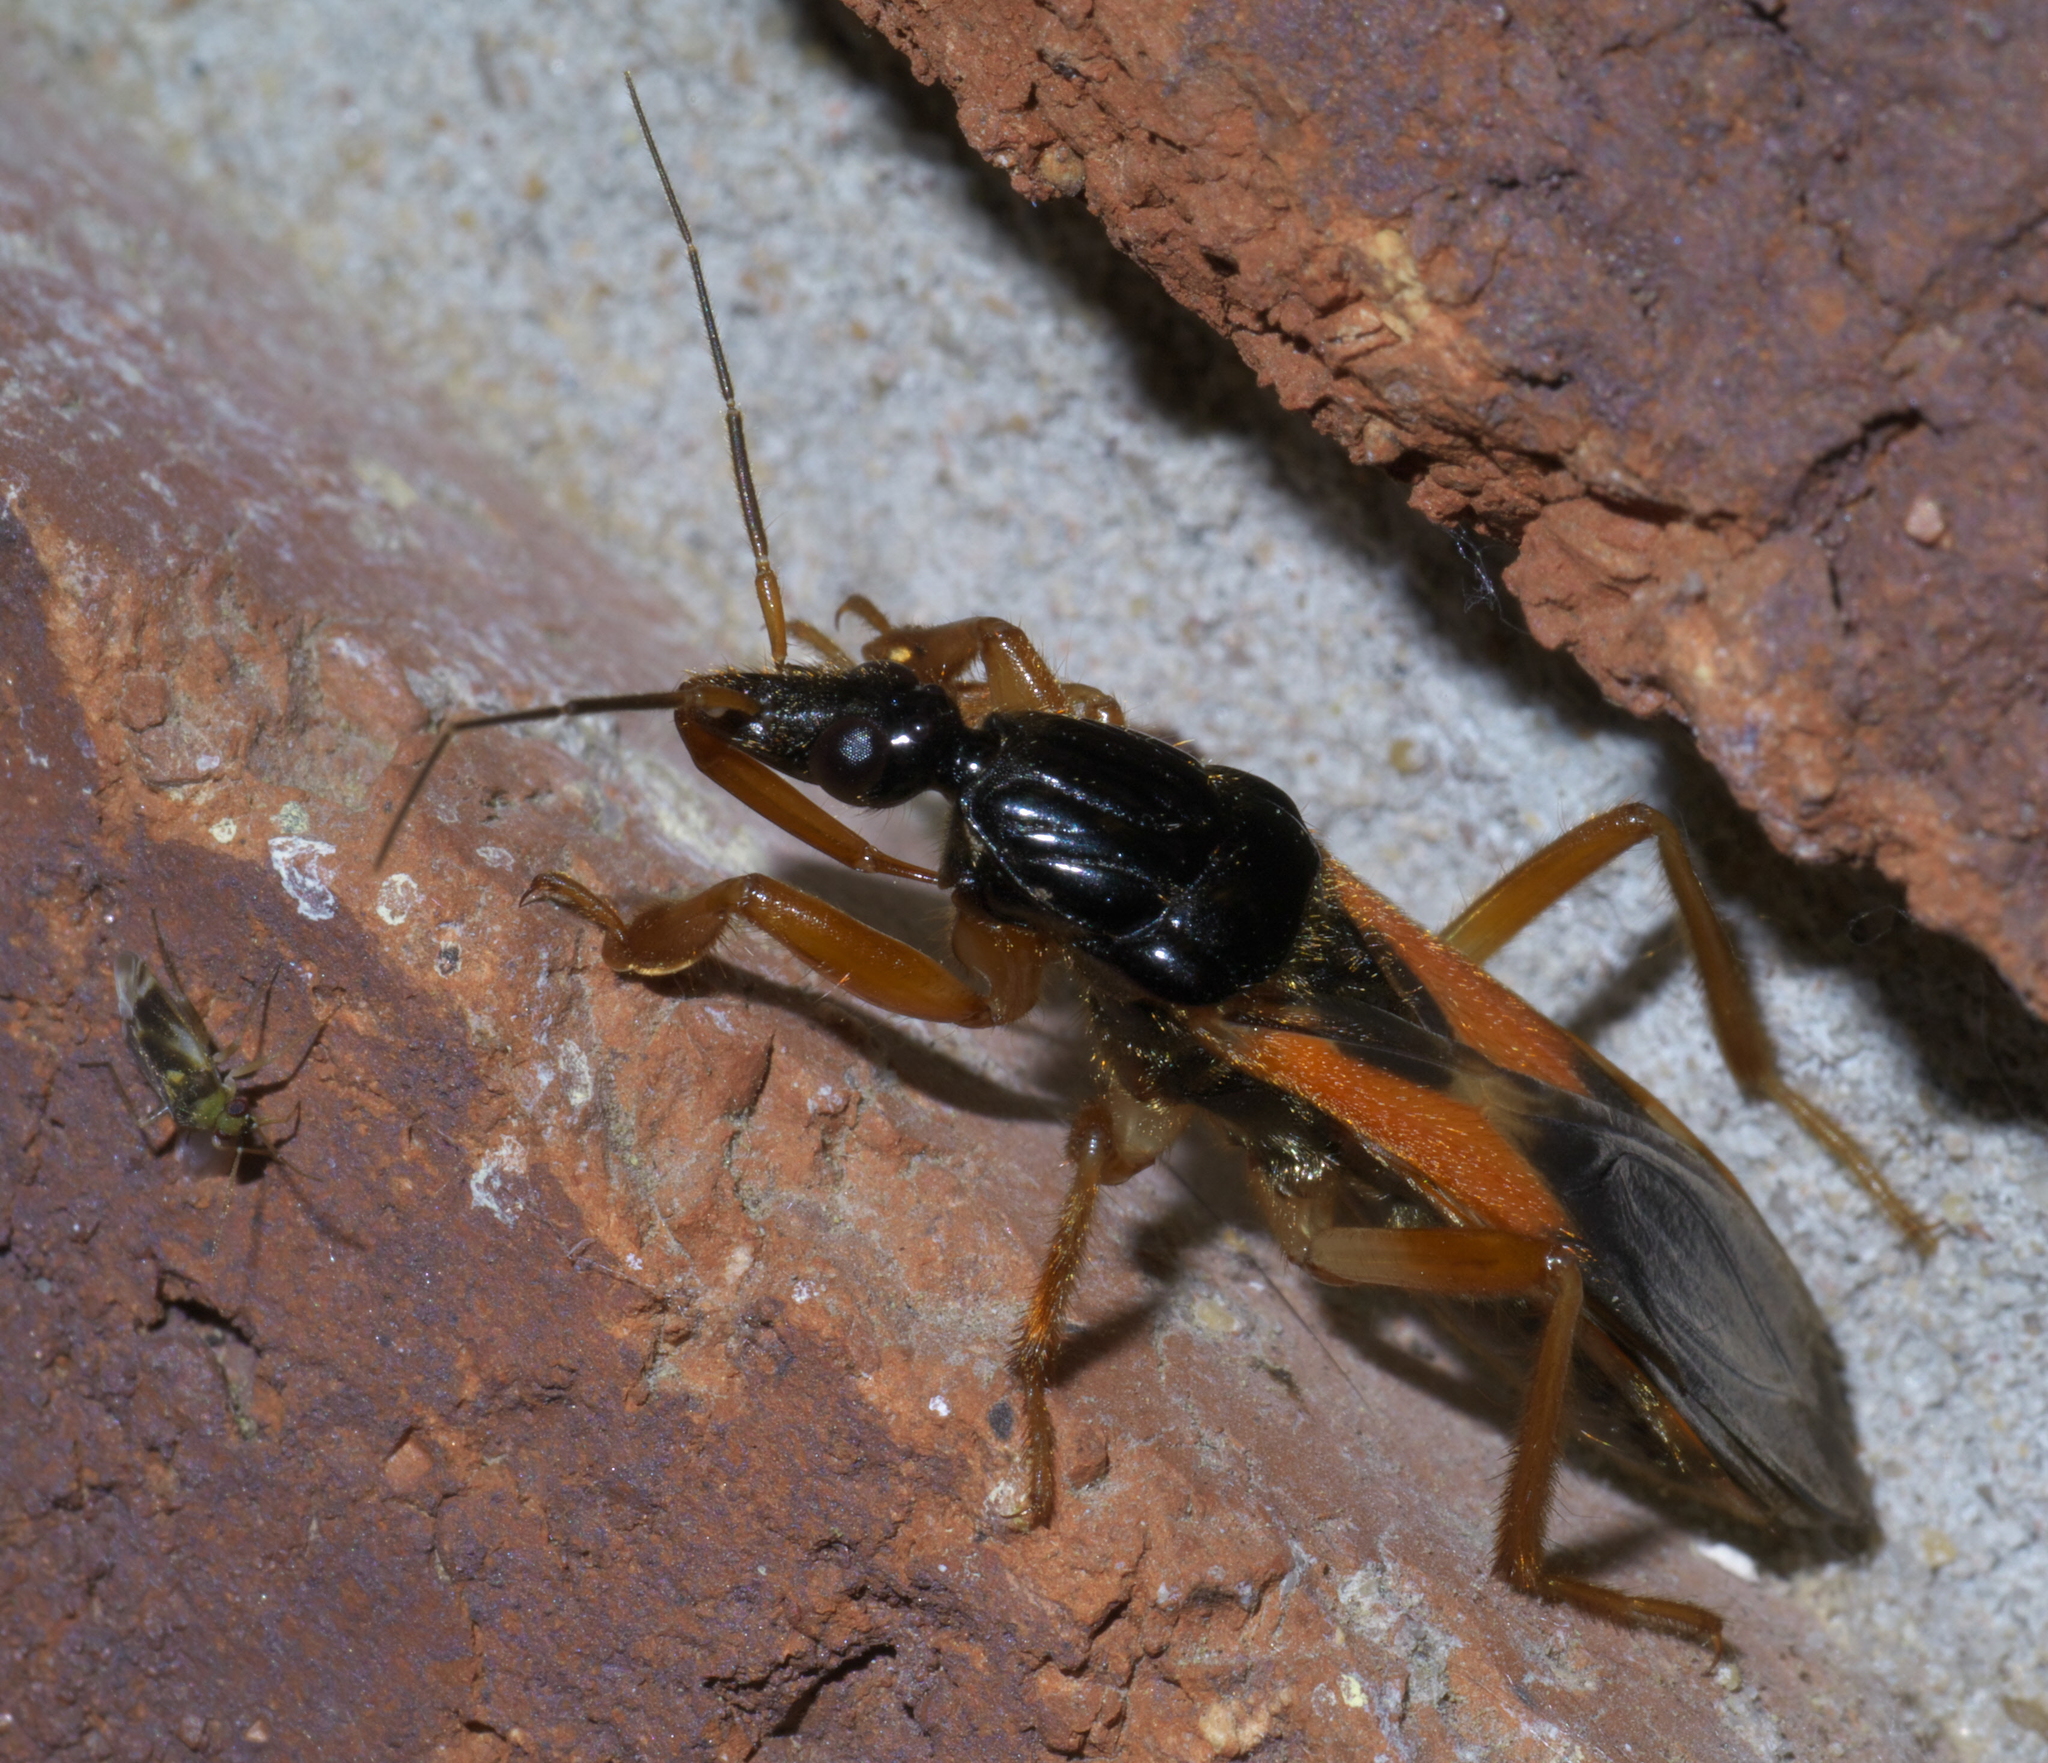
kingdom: Animalia
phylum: Arthropoda
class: Insecta
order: Hemiptera
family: Reduviidae
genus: Sirthenea
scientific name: Sirthenea stria
